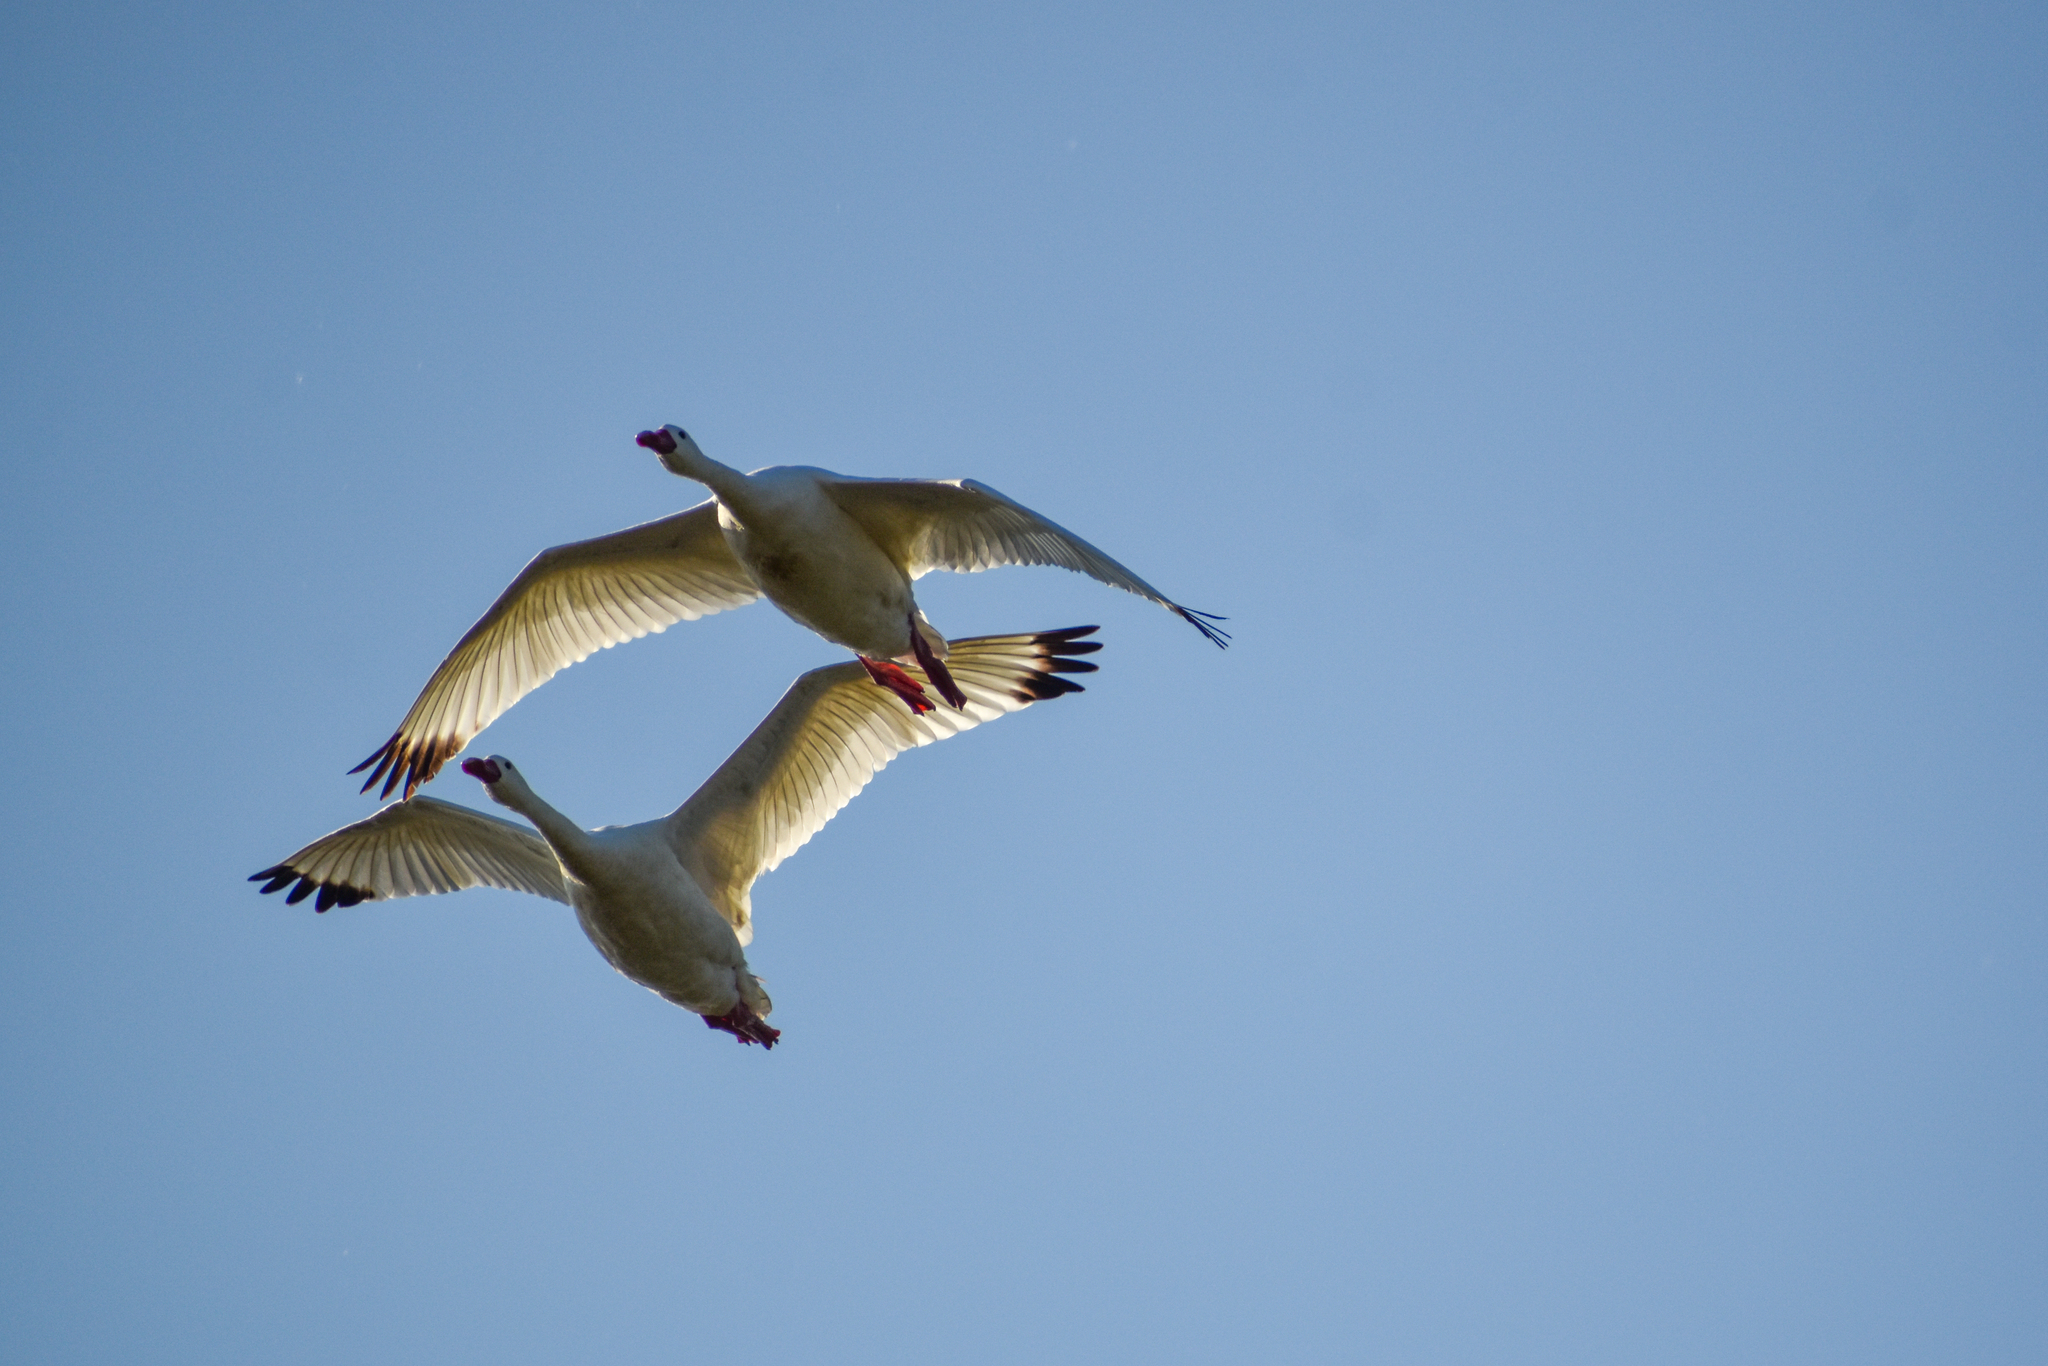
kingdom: Animalia
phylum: Chordata
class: Aves
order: Anseriformes
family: Anatidae
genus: Coscoroba
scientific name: Coscoroba coscoroba
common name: Coscoroba swan
